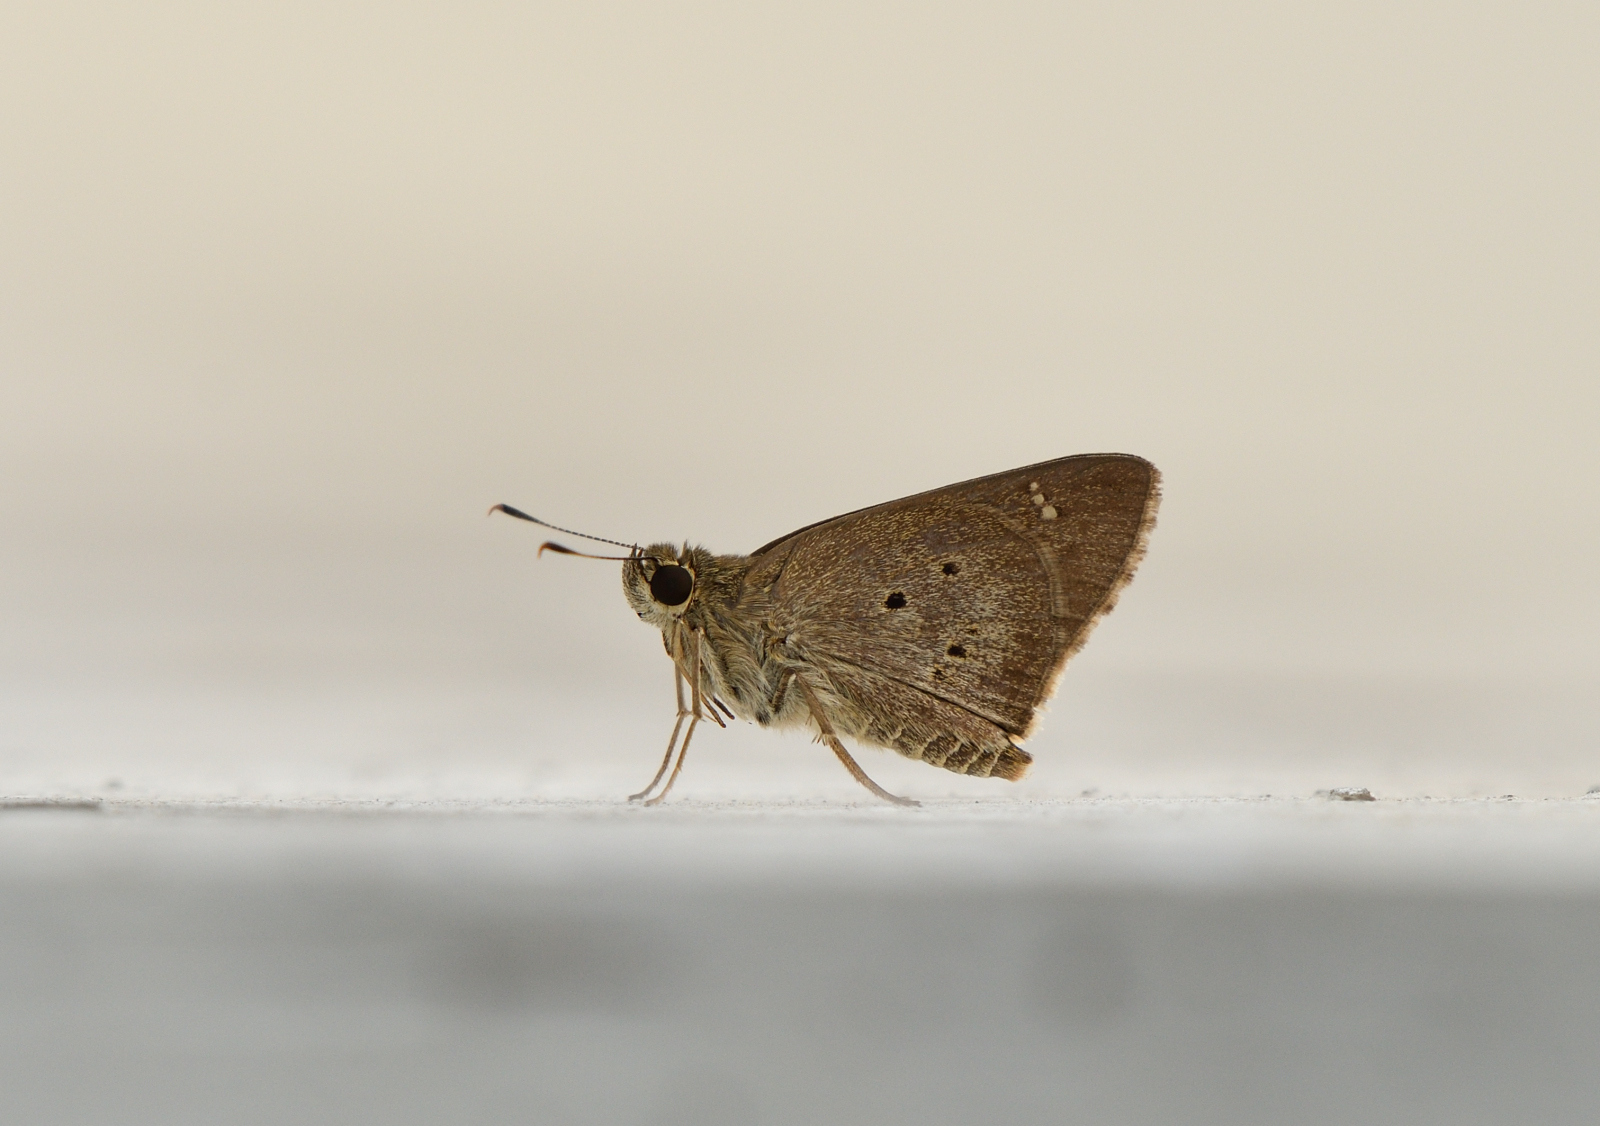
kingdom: Animalia
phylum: Arthropoda
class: Insecta
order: Lepidoptera
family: Hesperiidae
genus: Suastus
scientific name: Suastus gremius
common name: Indian palm bob
